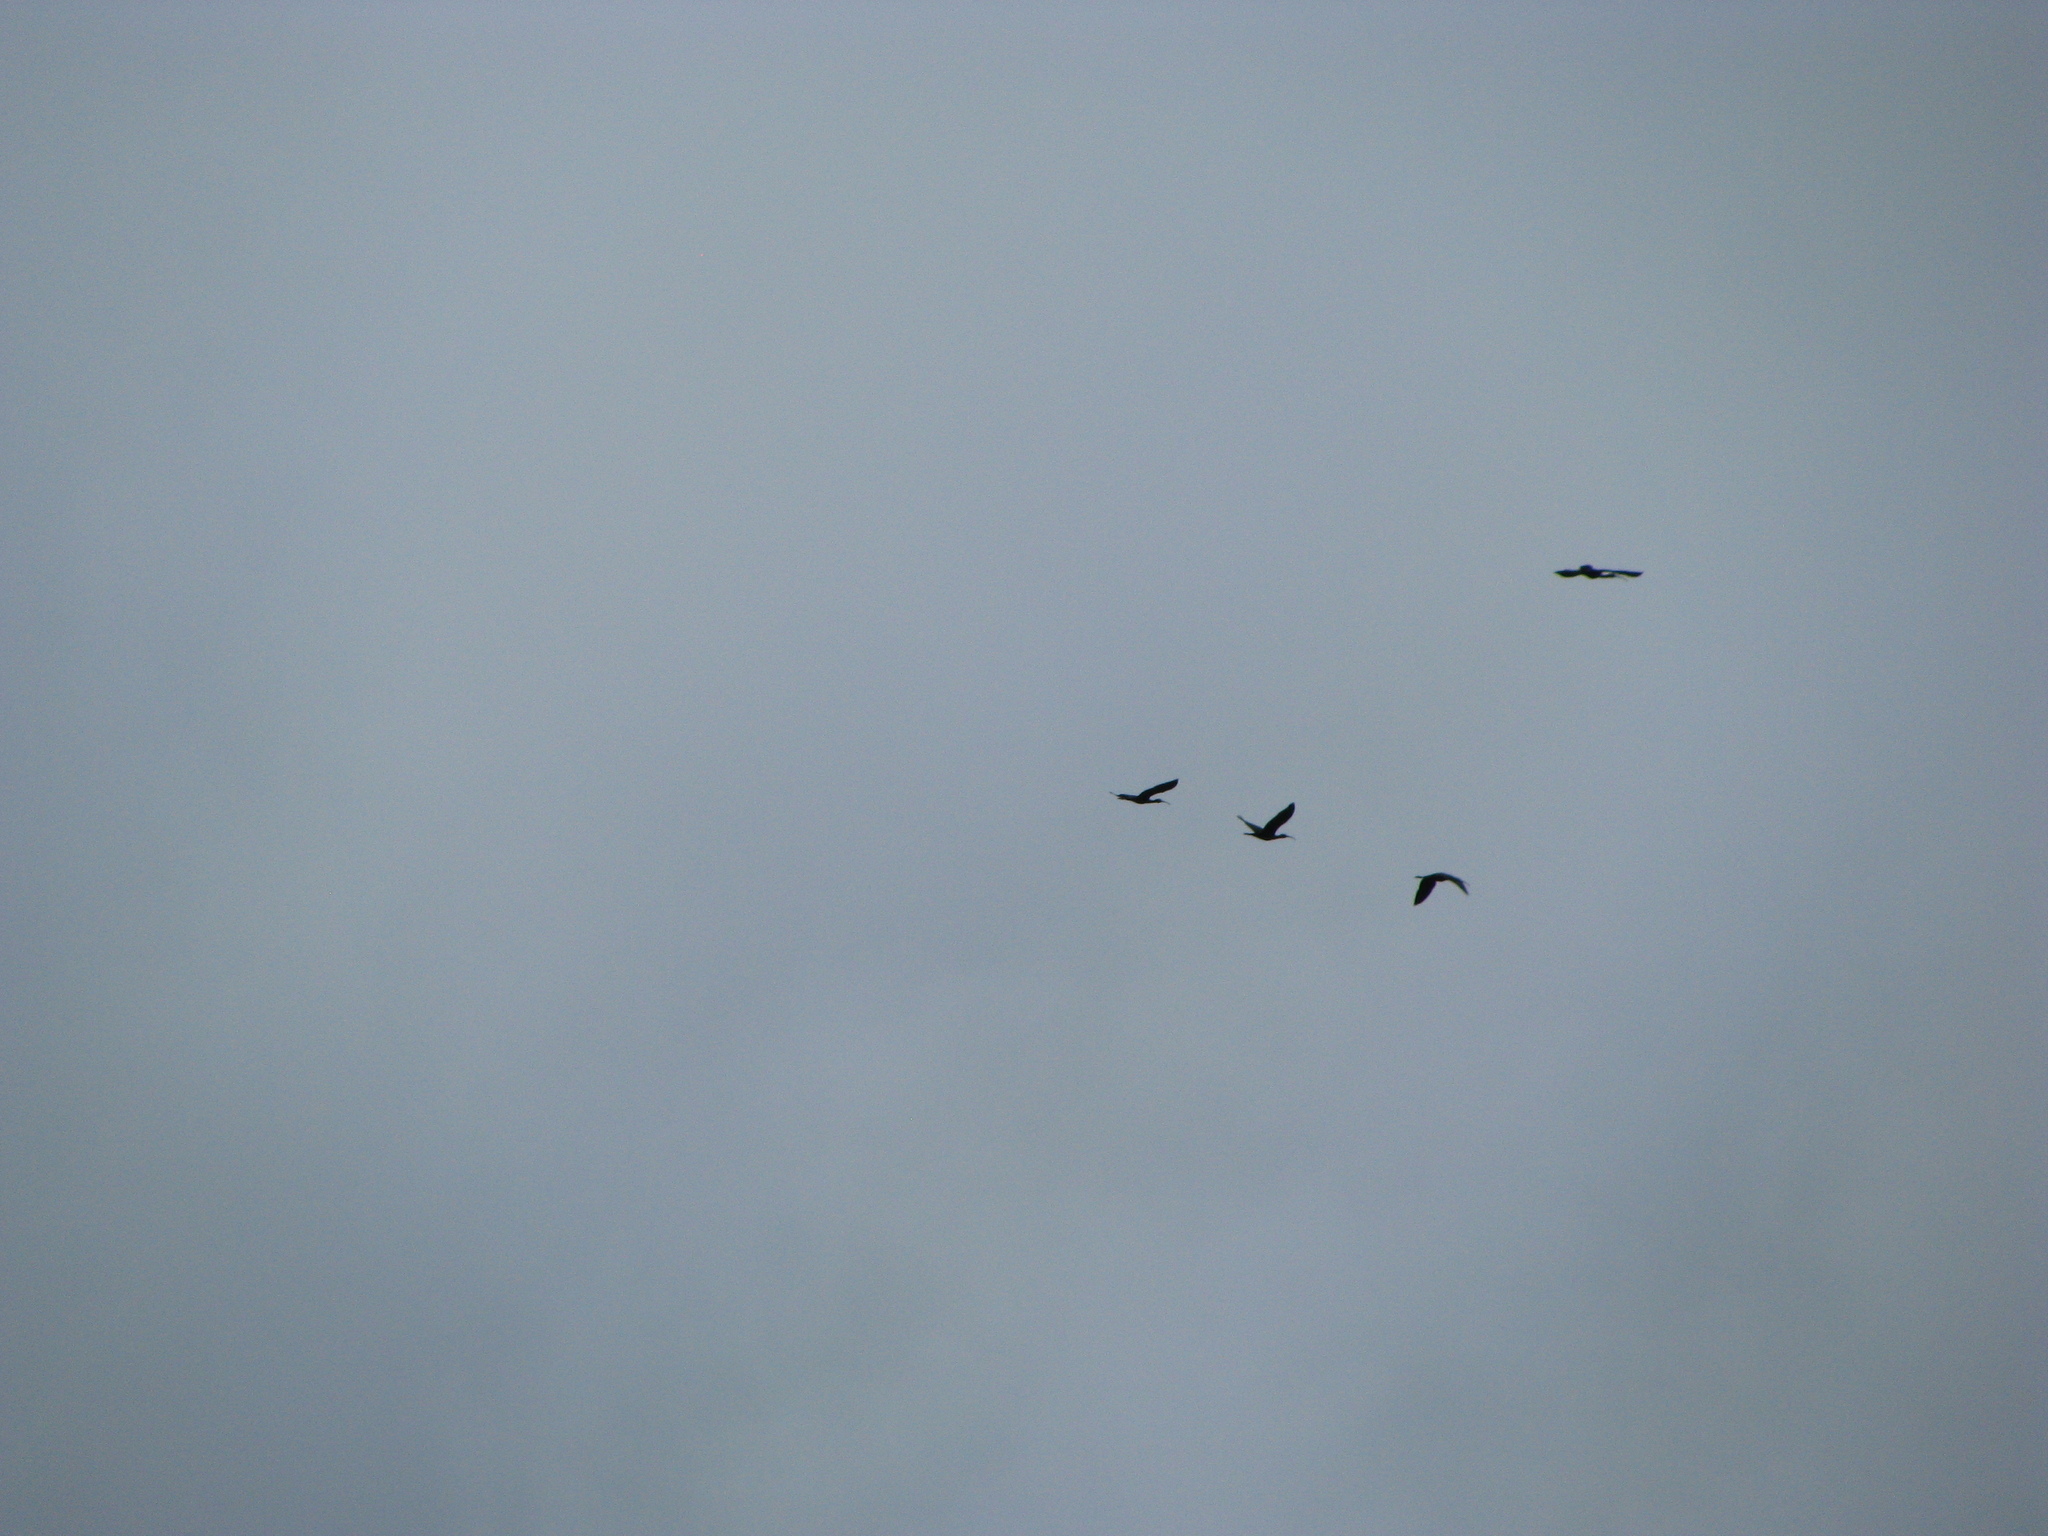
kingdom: Animalia
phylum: Chordata
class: Aves
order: Pelecaniformes
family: Threskiornithidae
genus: Plegadis
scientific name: Plegadis falcinellus
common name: Glossy ibis
